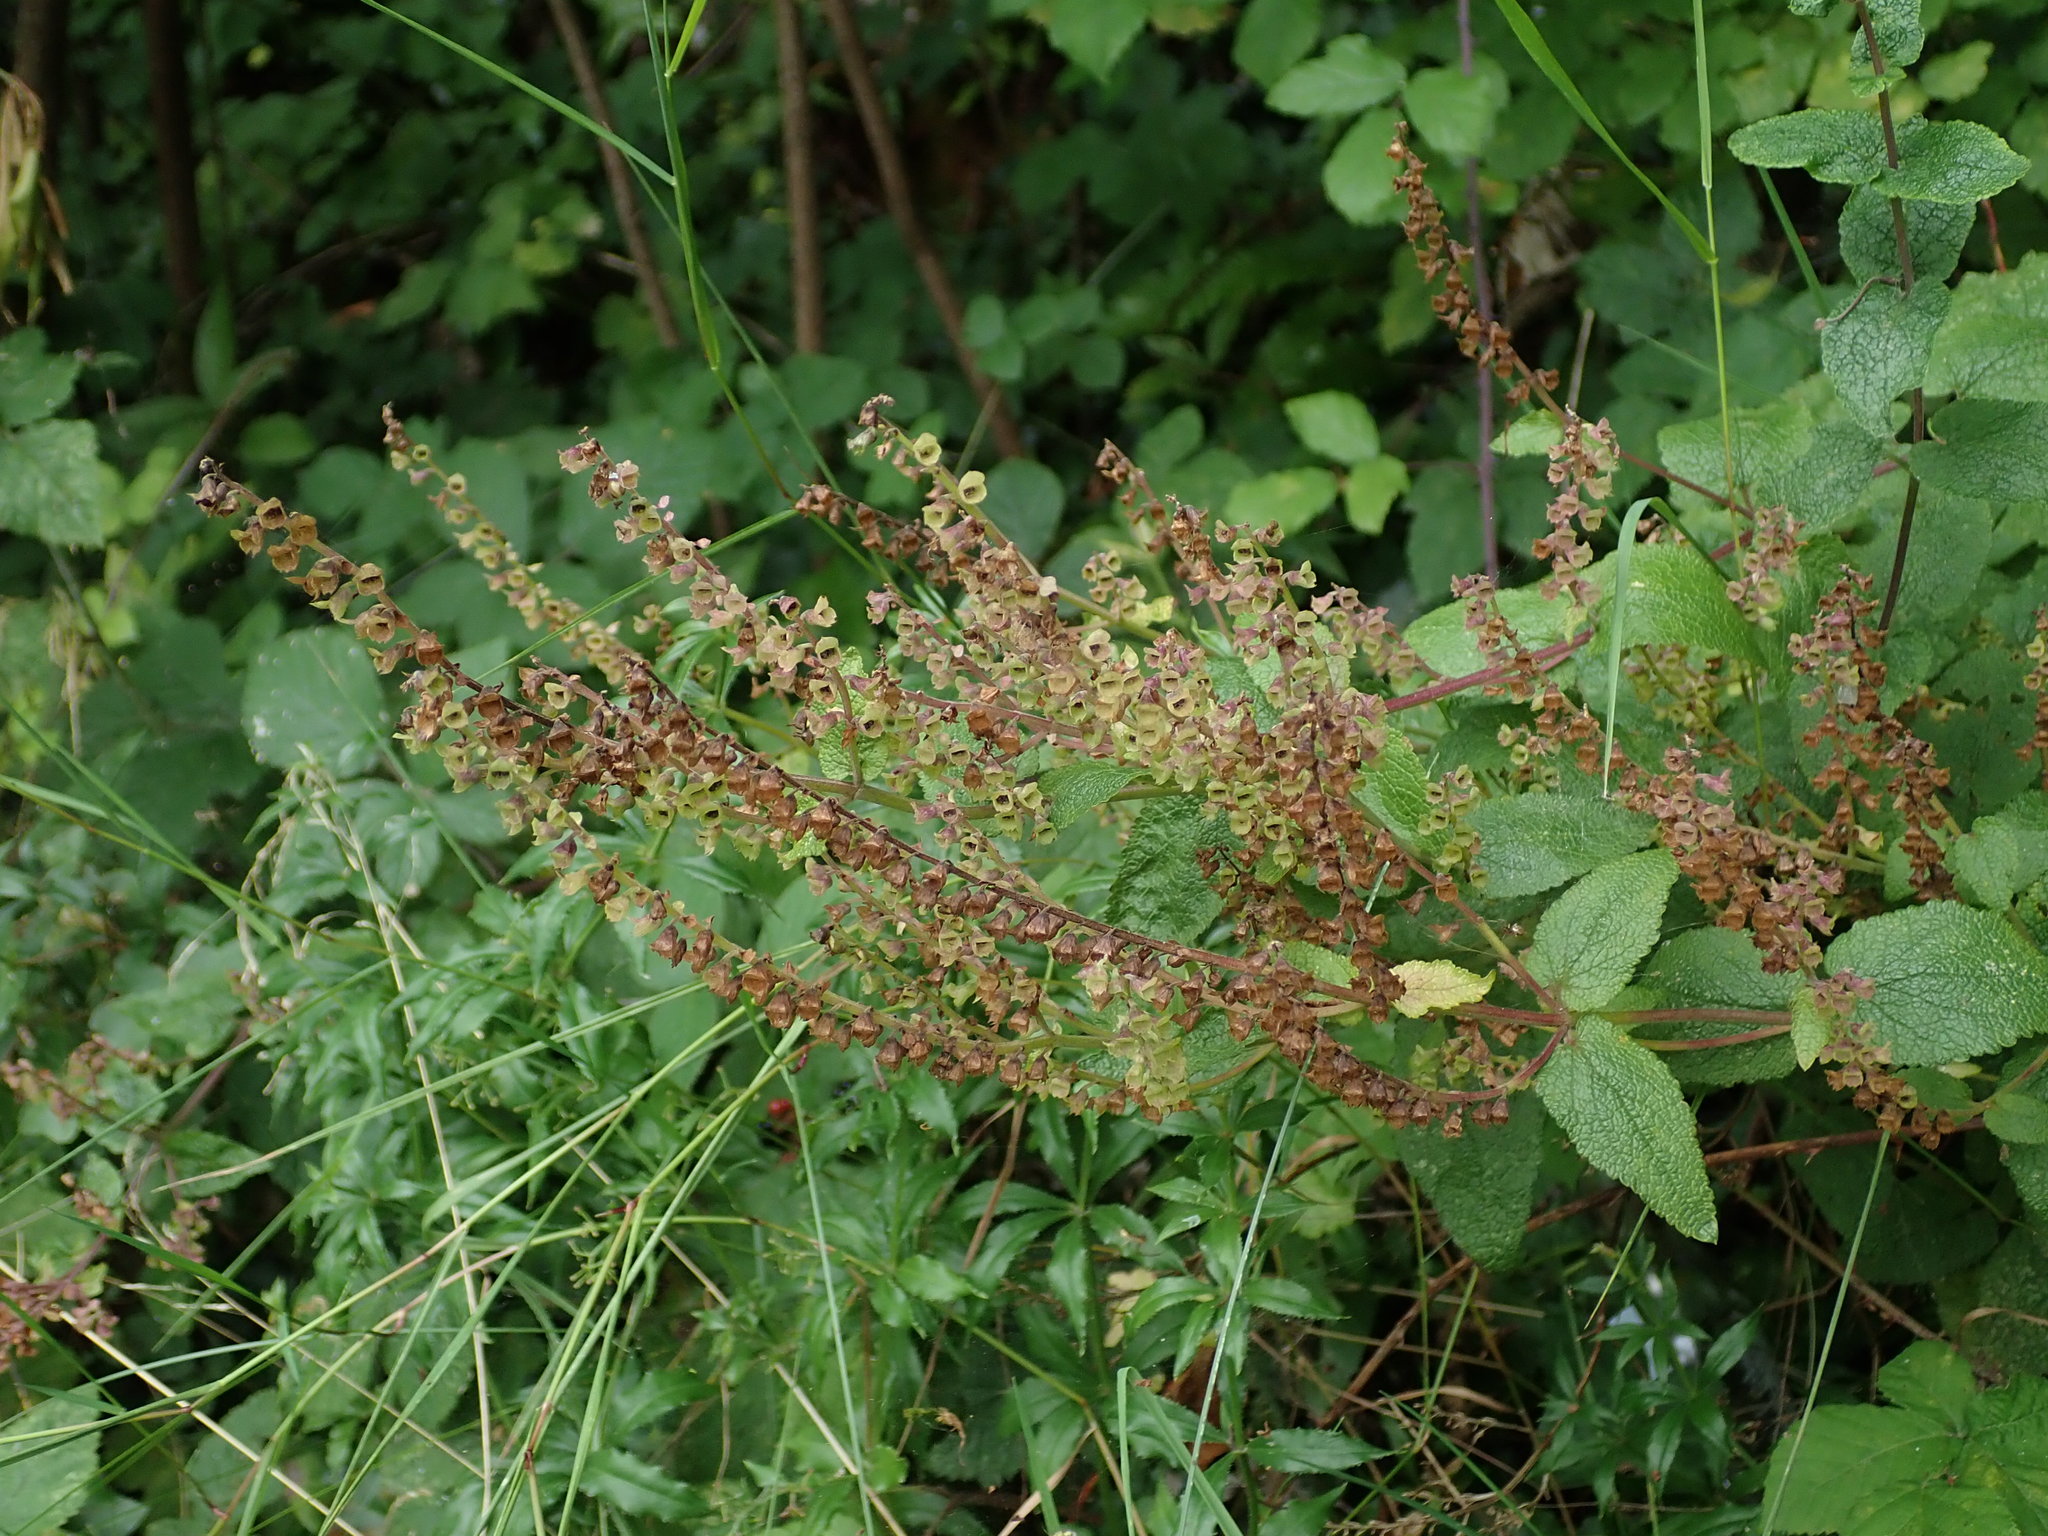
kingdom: Plantae
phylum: Tracheophyta
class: Magnoliopsida
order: Lamiales
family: Lamiaceae
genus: Teucrium
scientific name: Teucrium scorodonia
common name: Woodland germander
